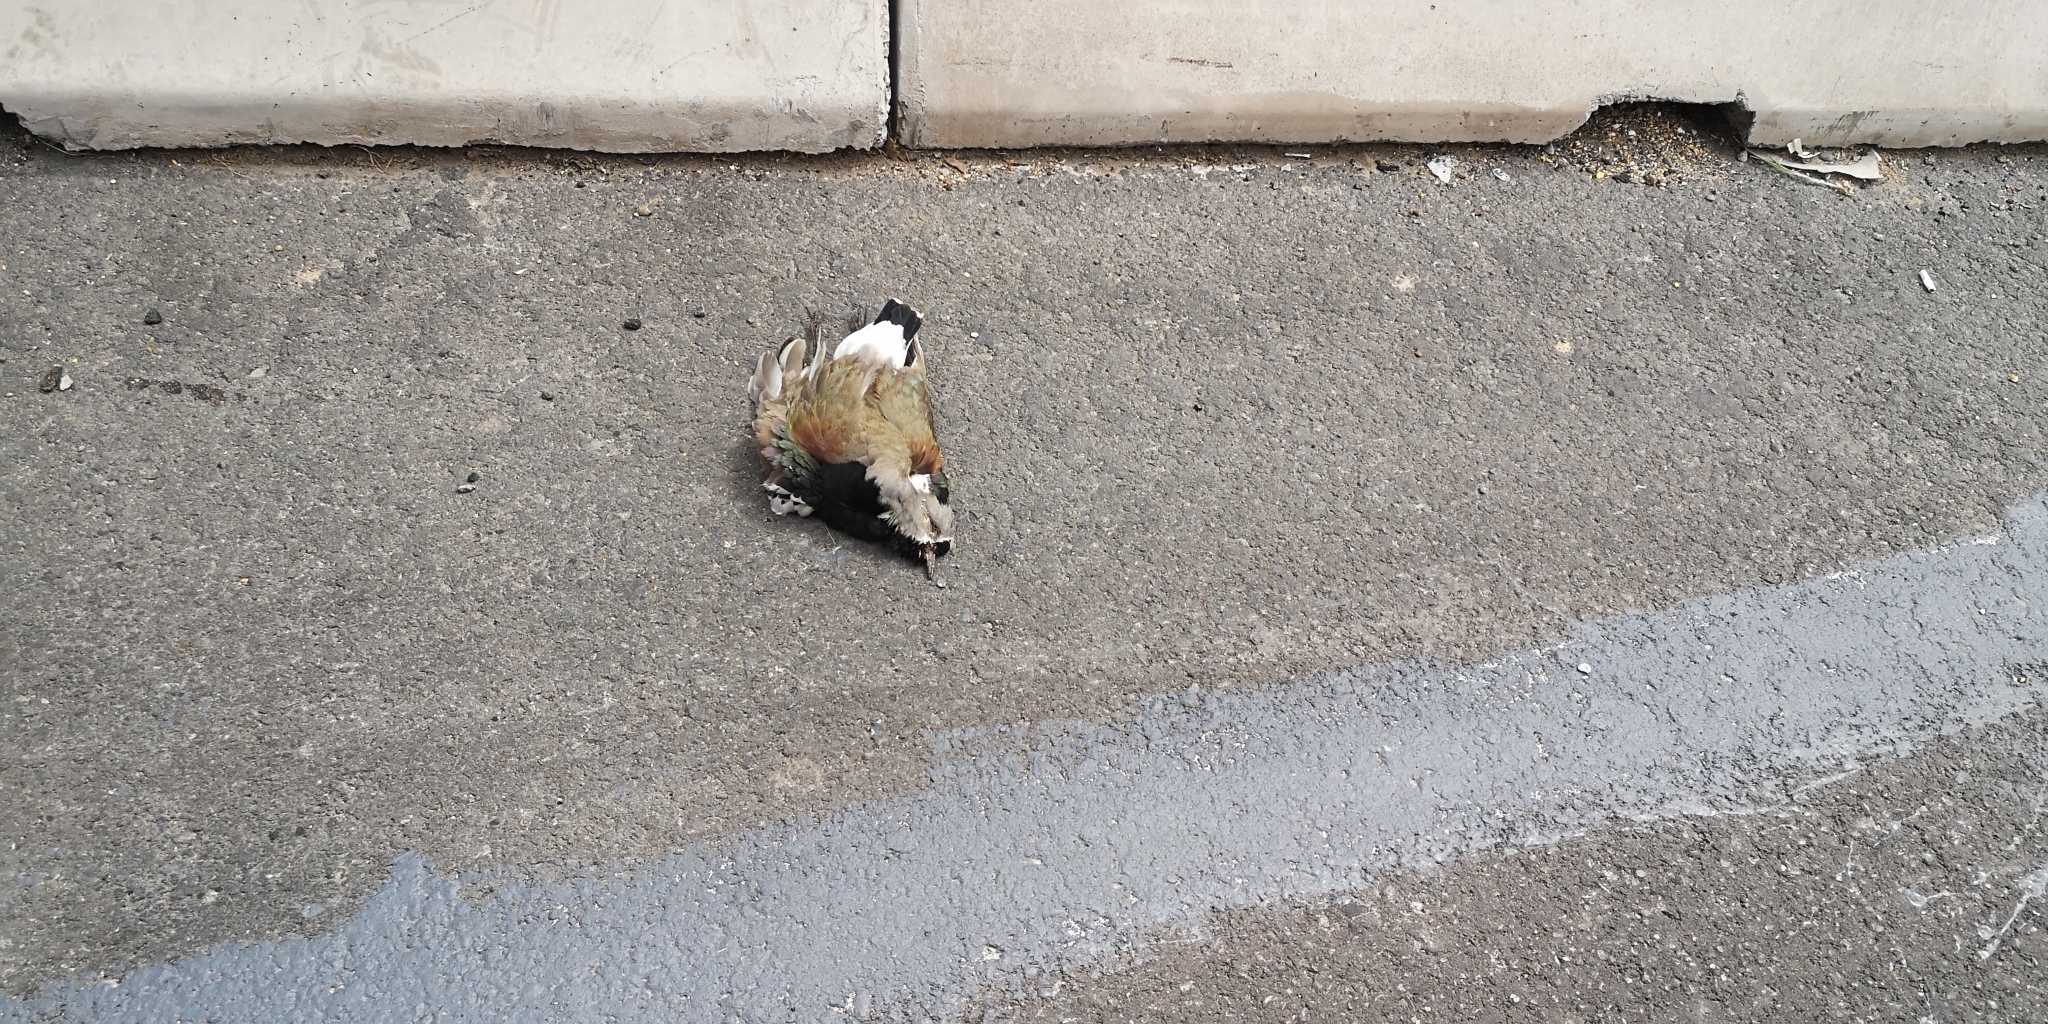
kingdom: Animalia
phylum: Chordata
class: Aves
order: Charadriiformes
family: Charadriidae
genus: Vanellus
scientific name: Vanellus chilensis
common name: Southern lapwing
